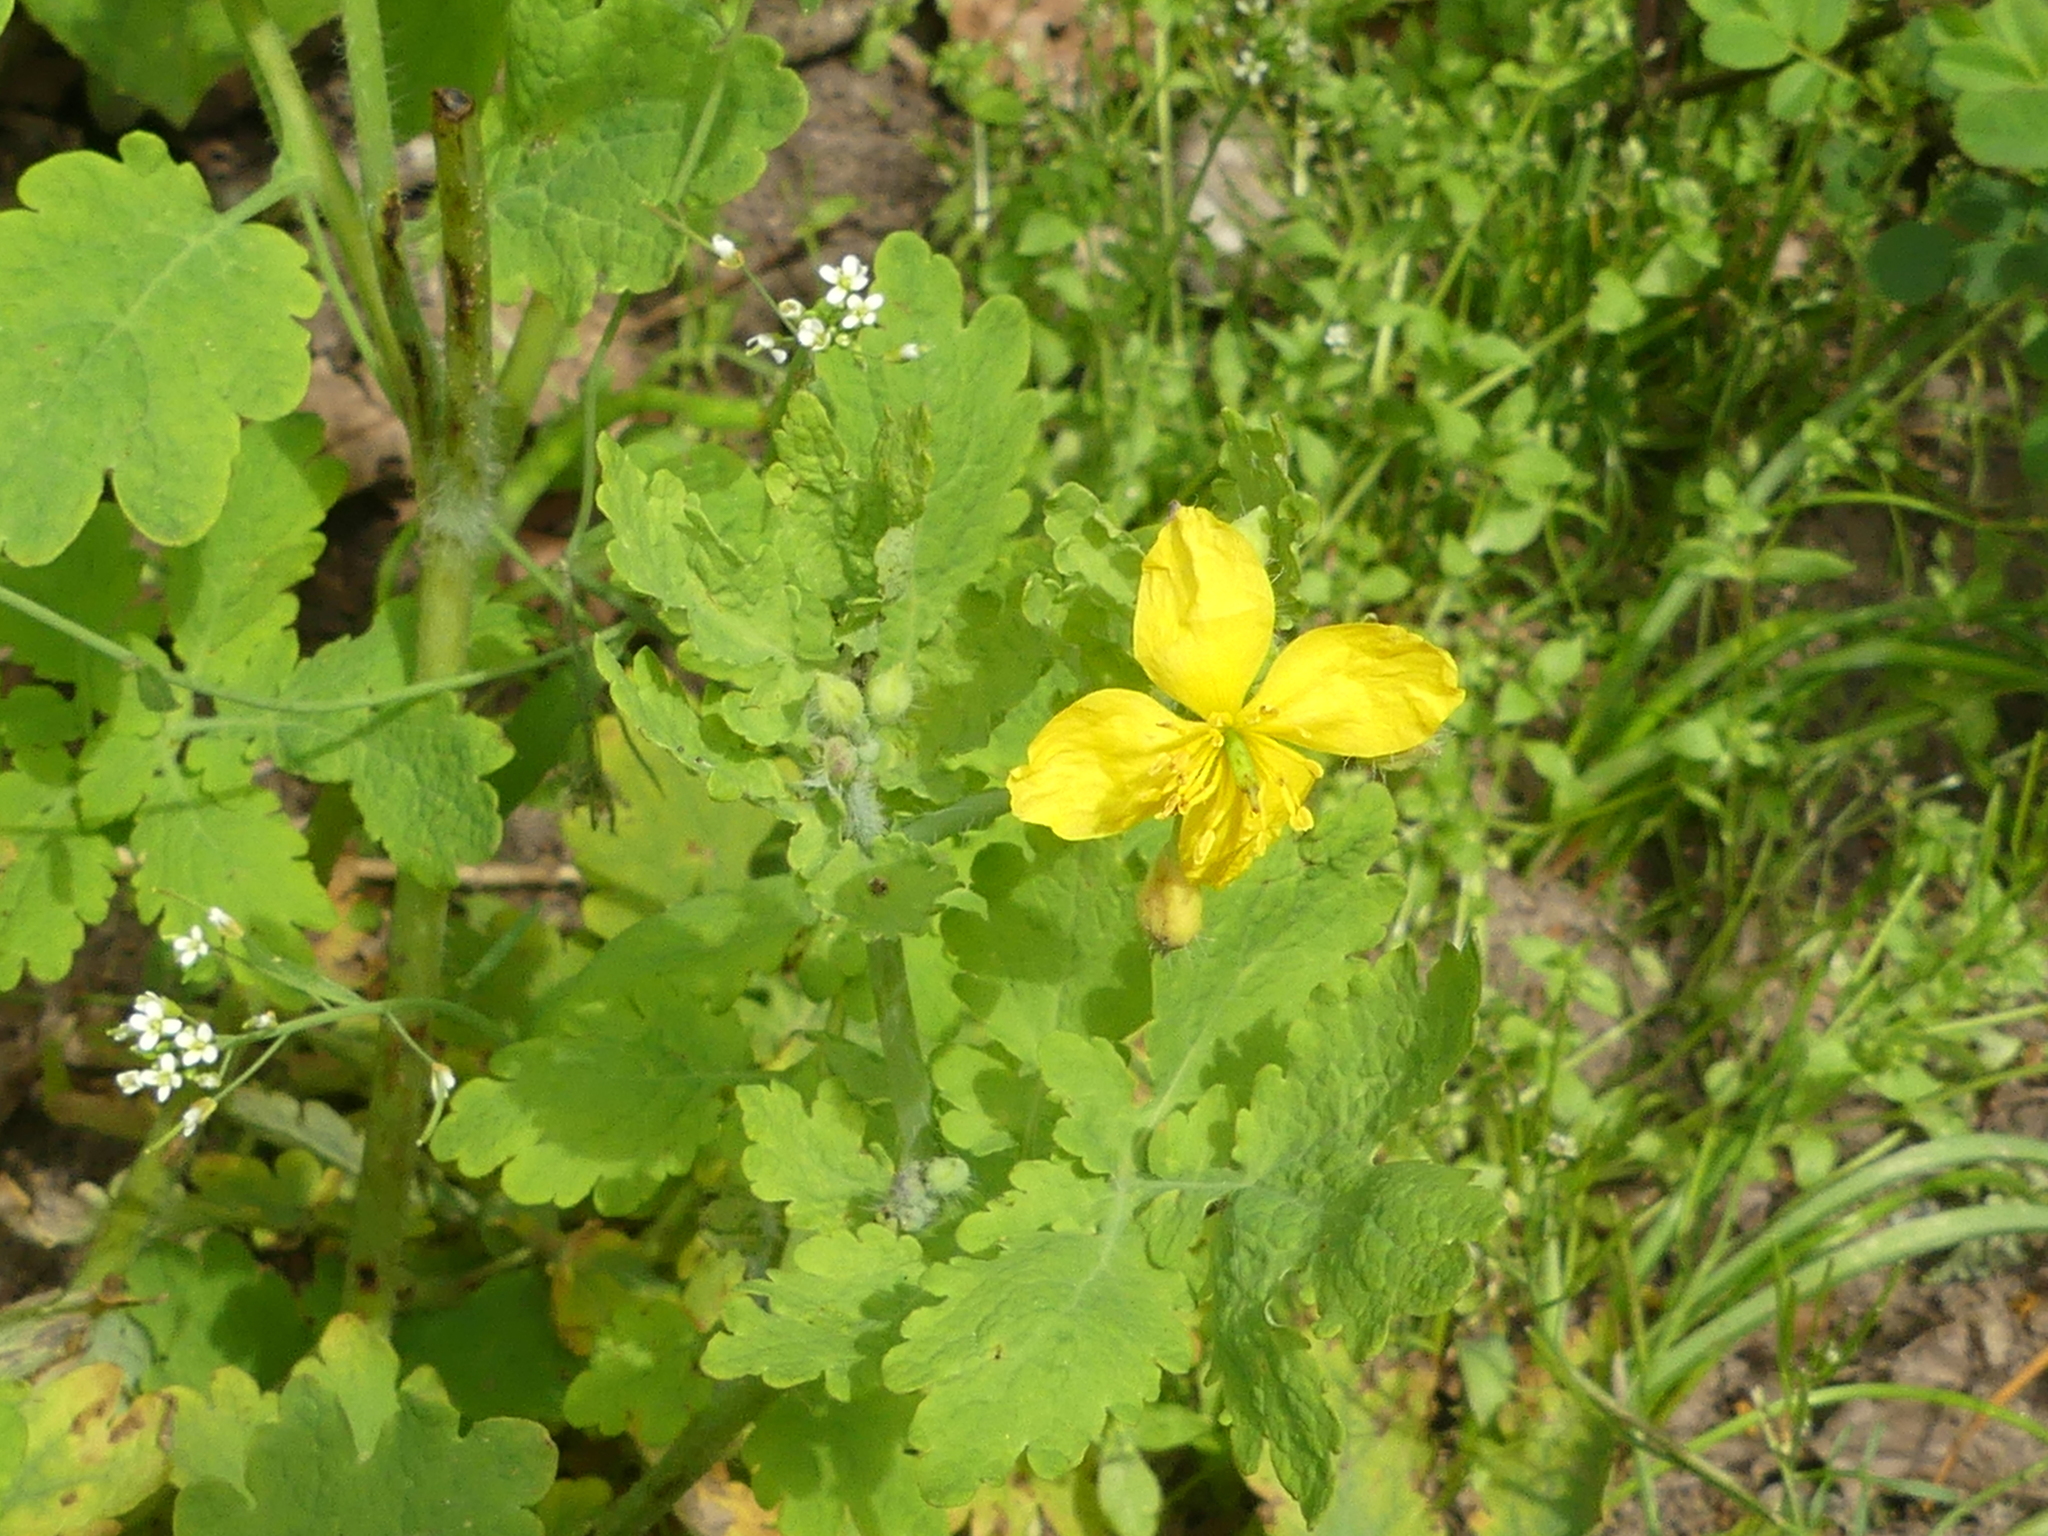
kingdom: Plantae
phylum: Tracheophyta
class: Magnoliopsida
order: Ranunculales
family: Papaveraceae
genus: Chelidonium
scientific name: Chelidonium majus
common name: Greater celandine
